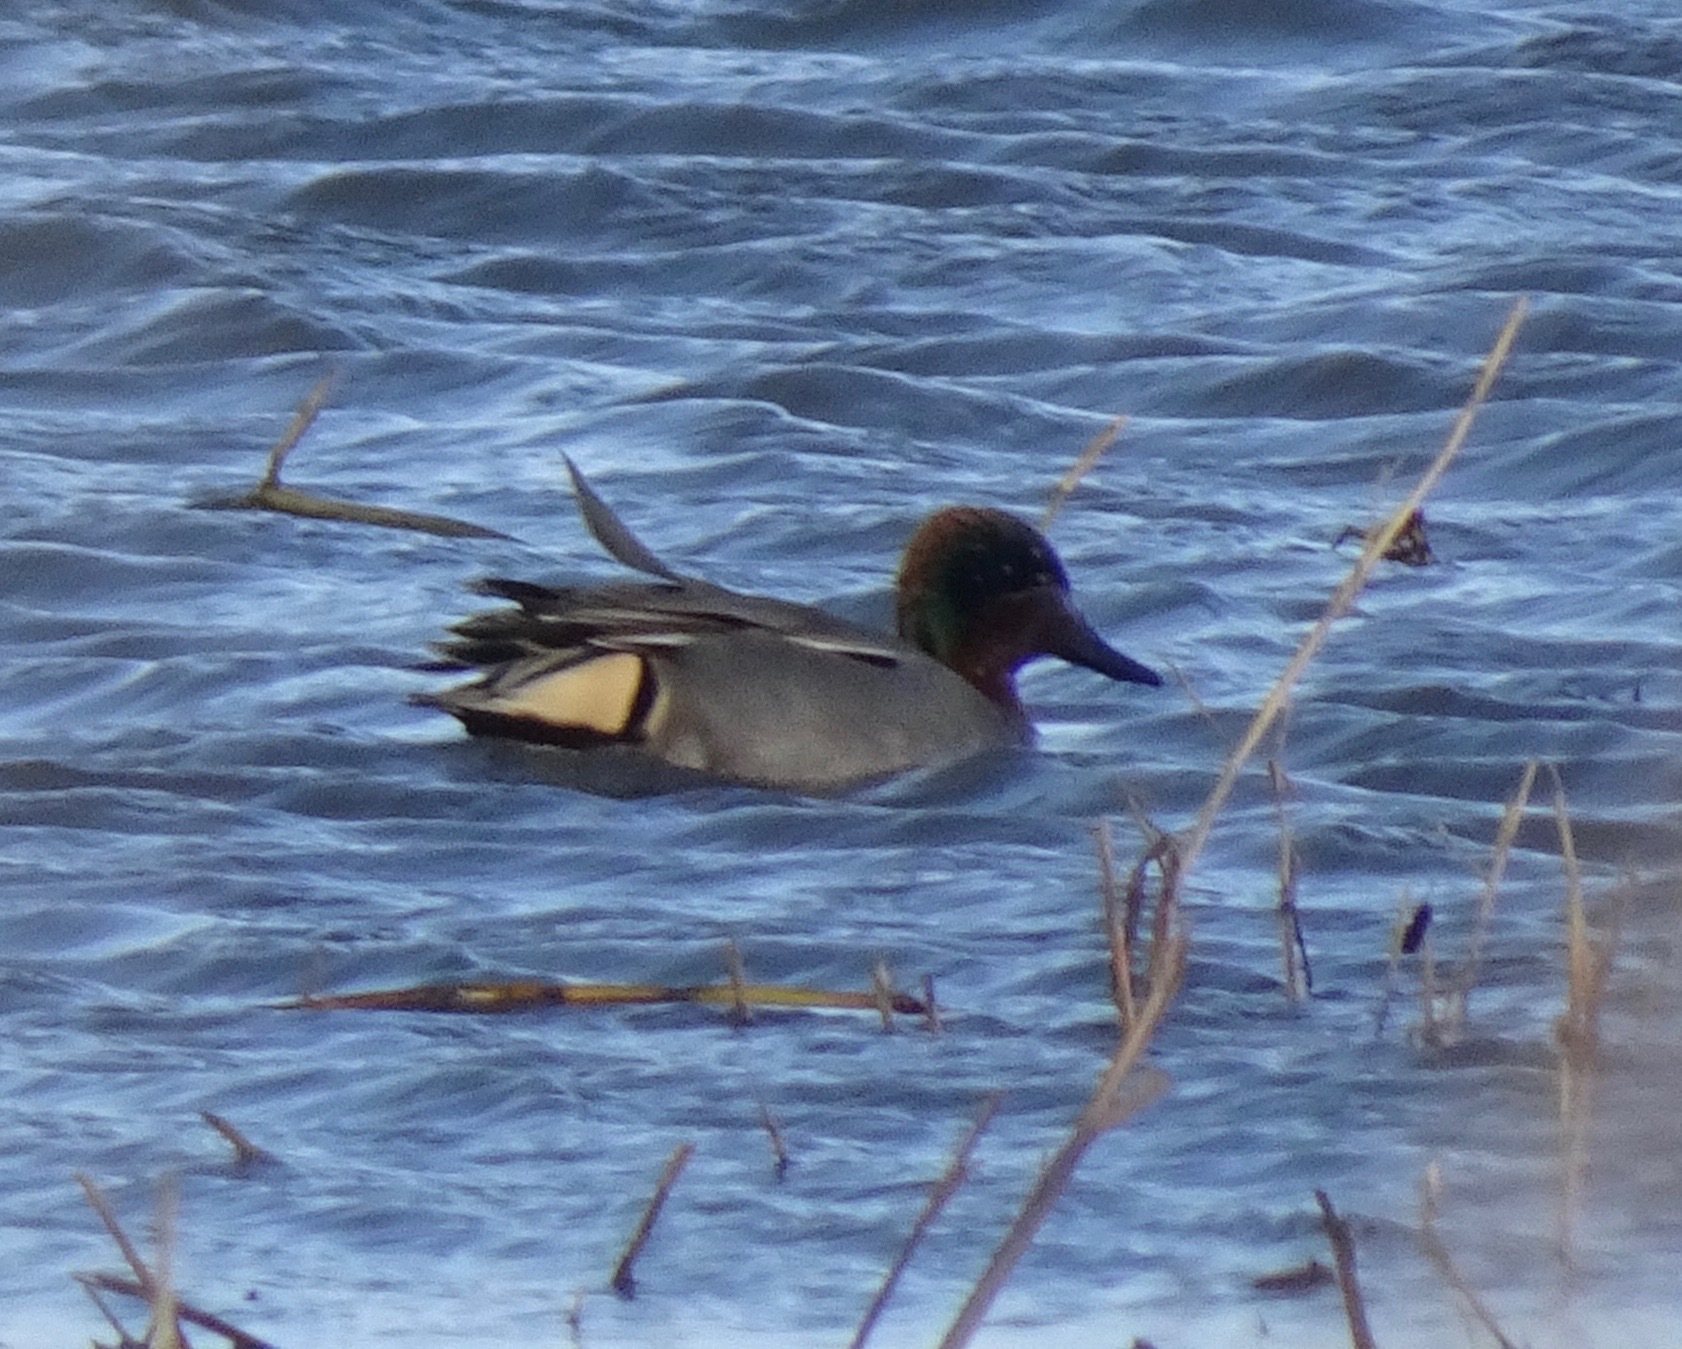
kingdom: Animalia
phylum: Chordata
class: Aves
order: Anseriformes
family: Anatidae
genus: Anas
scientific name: Anas crecca
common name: Eurasian teal
